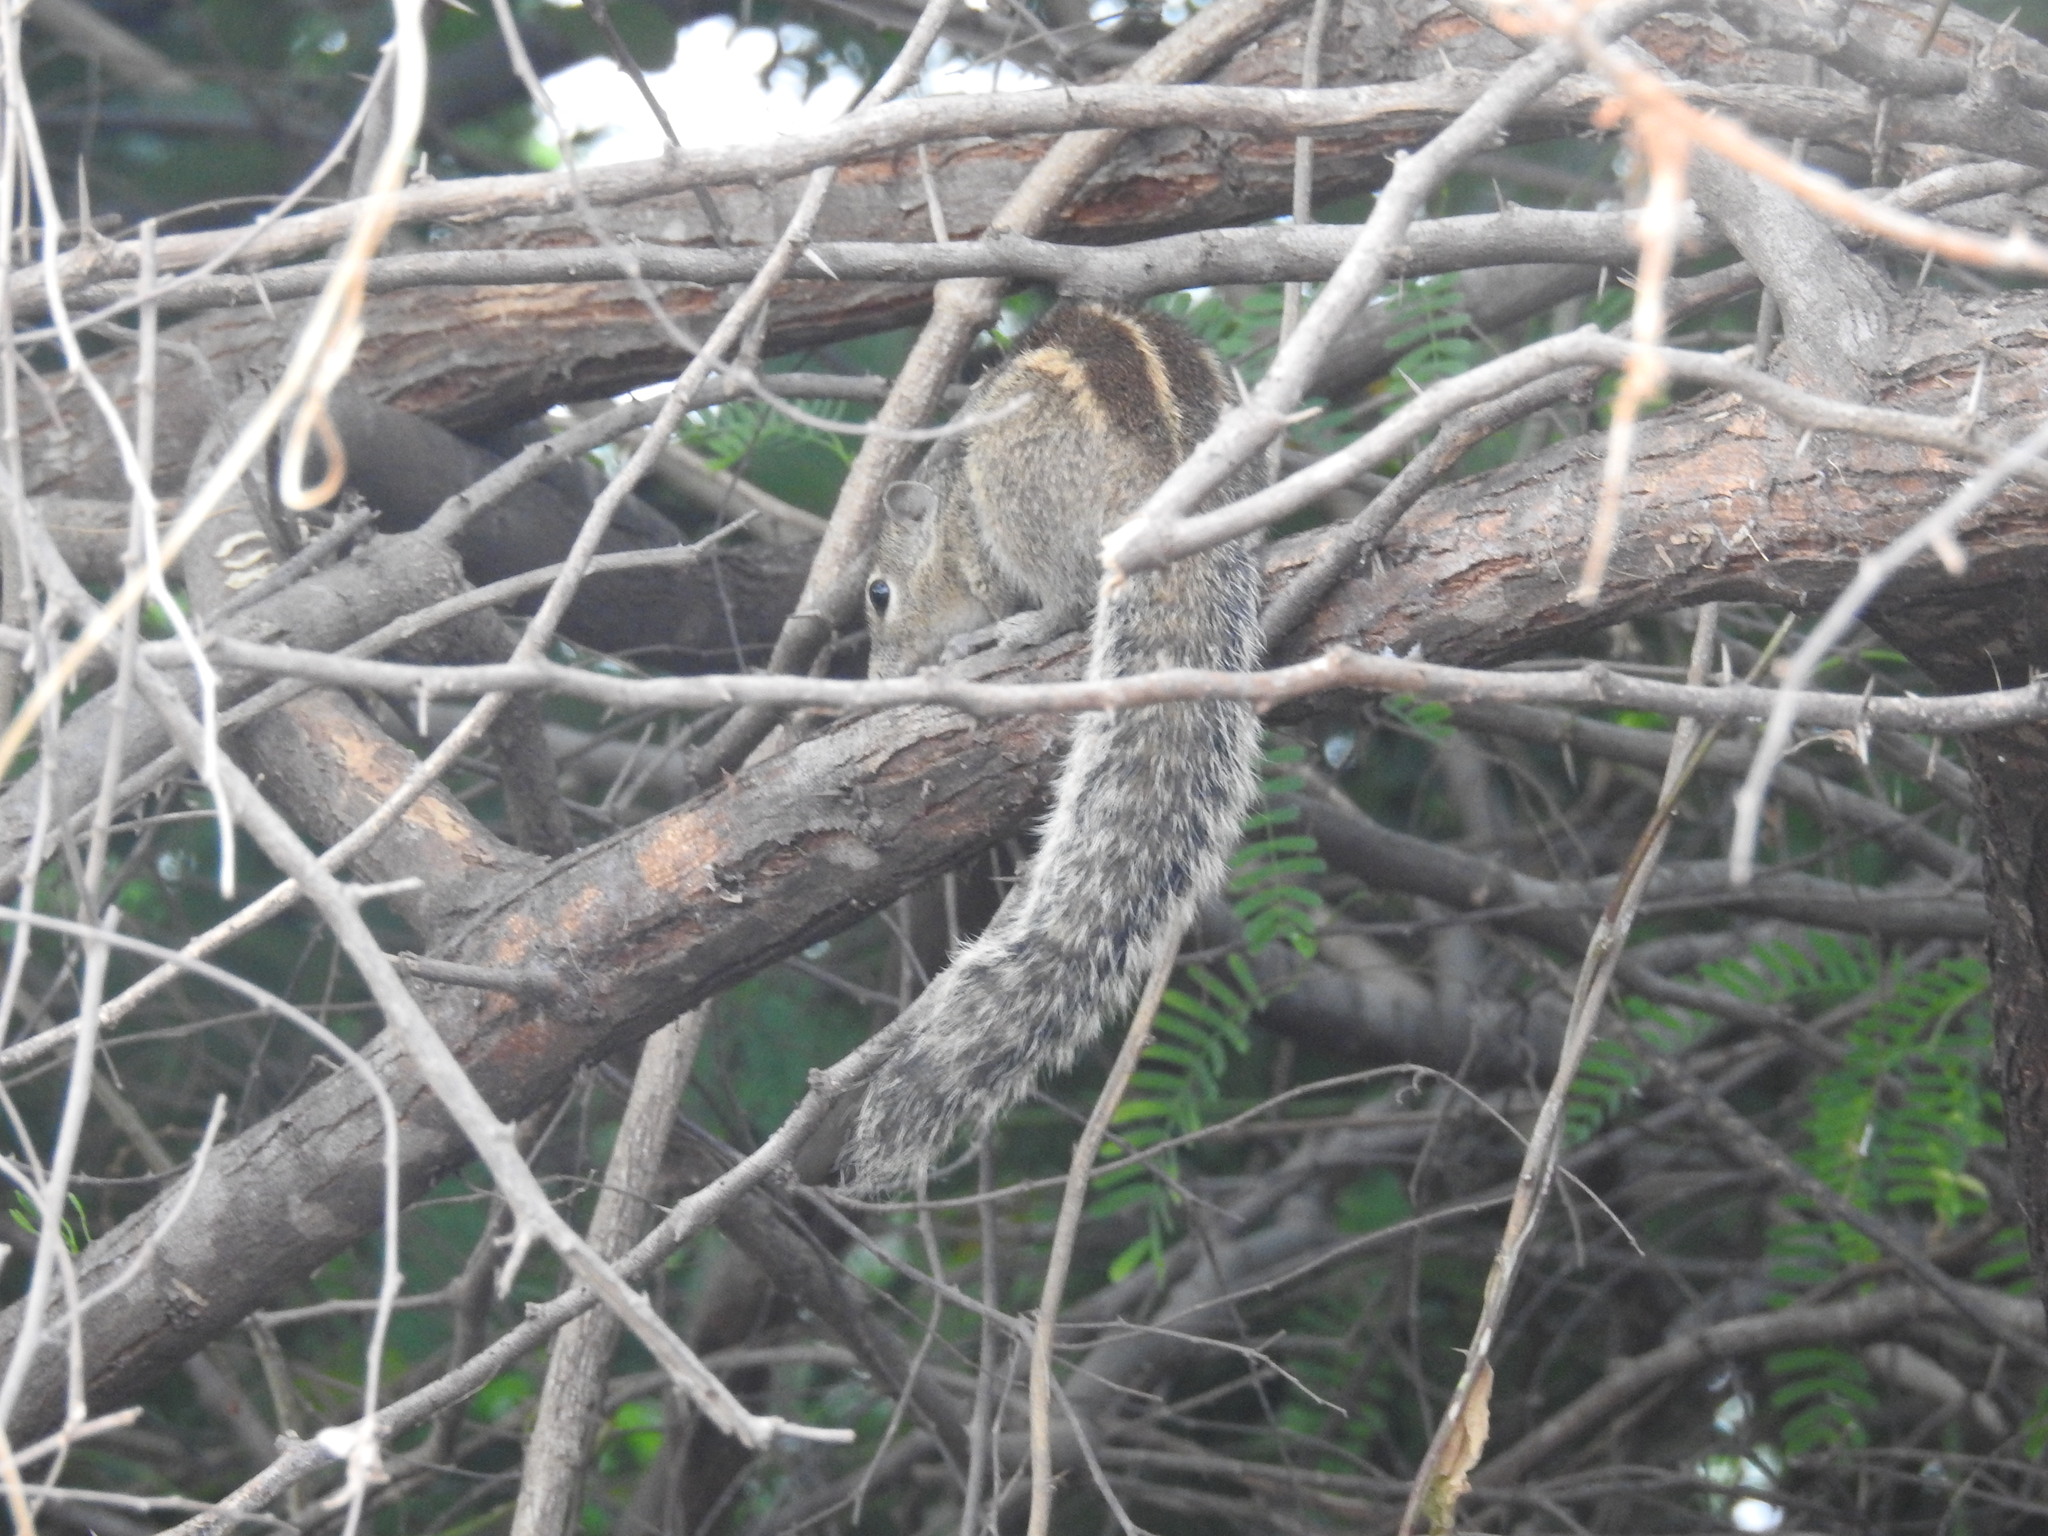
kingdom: Animalia
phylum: Chordata
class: Mammalia
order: Rodentia
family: Sciuridae
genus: Funambulus
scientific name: Funambulus palmarum
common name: Indian palm squirrel
